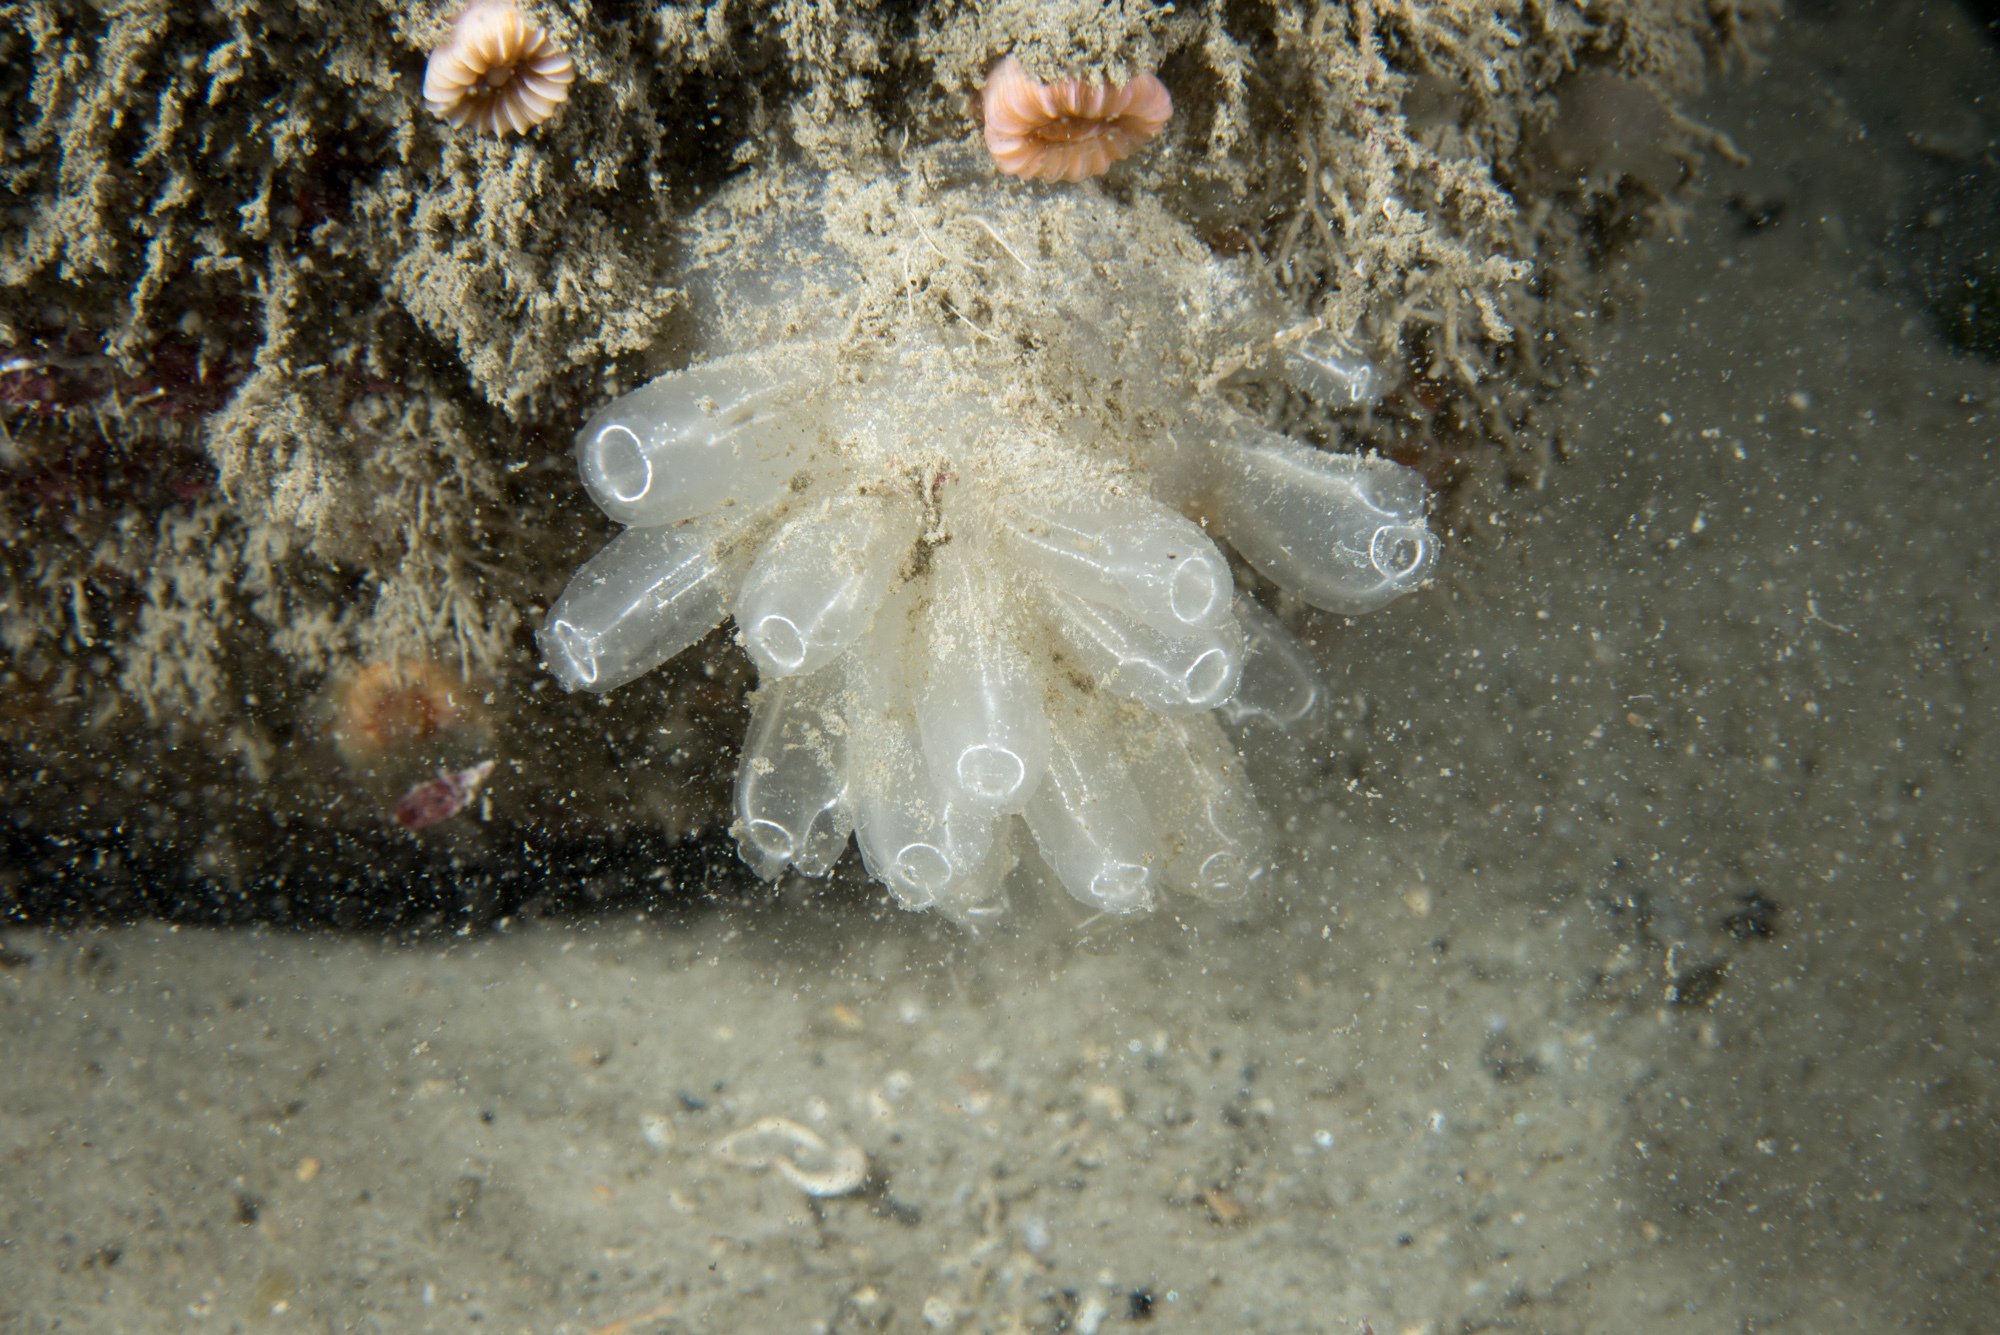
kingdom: Animalia
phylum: Chordata
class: Ascidiacea
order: Aplousobranchia
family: Diazonidae
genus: Diazona
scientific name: Diazona violacea
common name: Football ascidian
